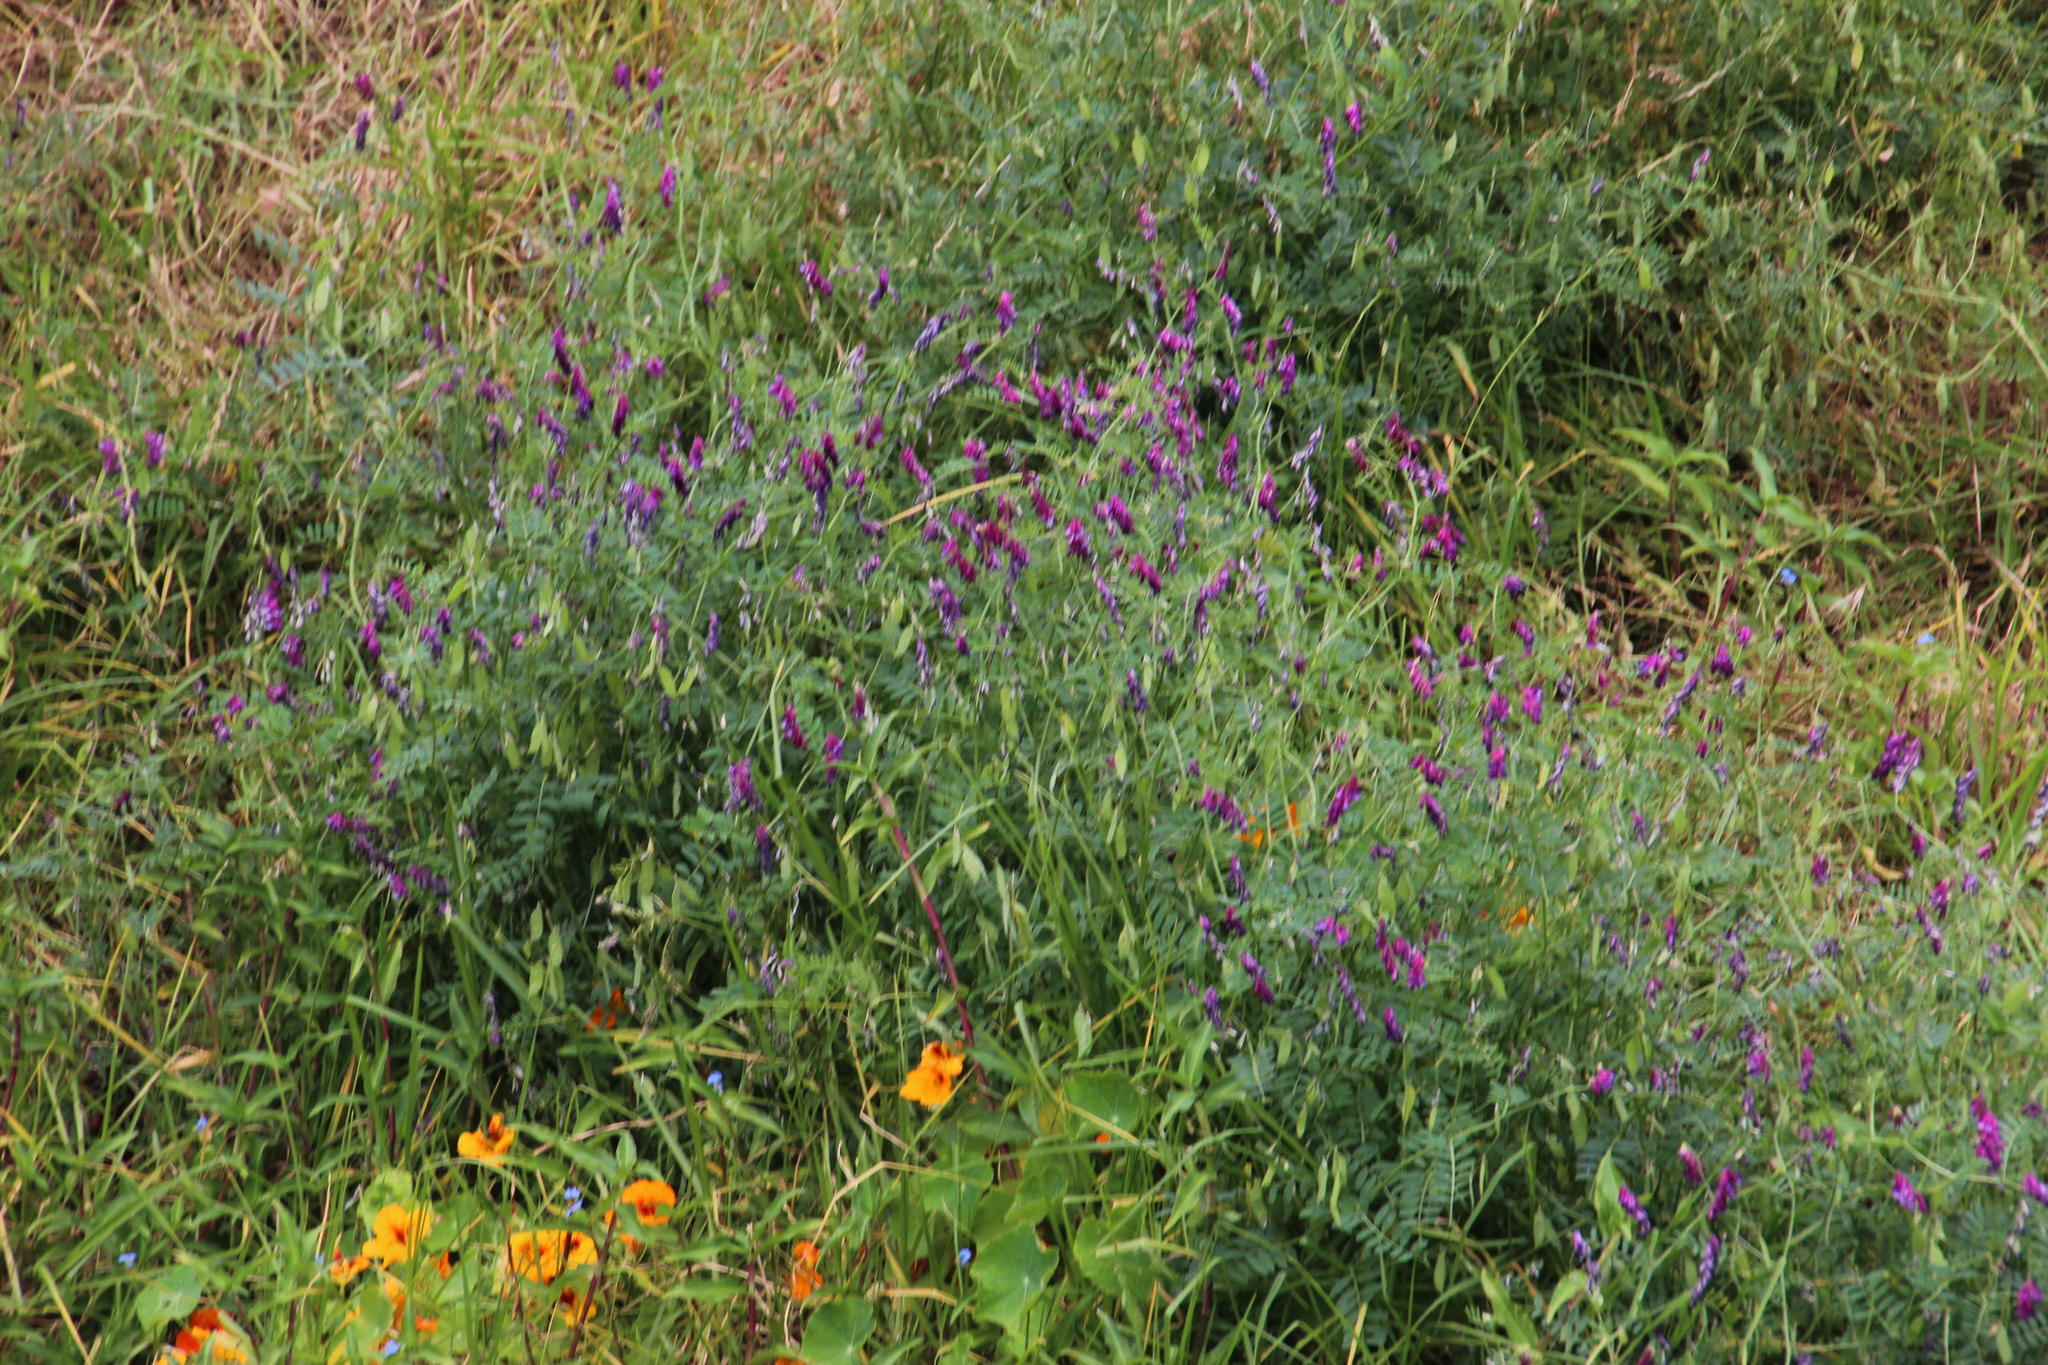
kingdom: Plantae
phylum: Tracheophyta
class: Magnoliopsida
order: Fabales
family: Fabaceae
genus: Vicia
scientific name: Vicia benghalensis
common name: Purple vetch
